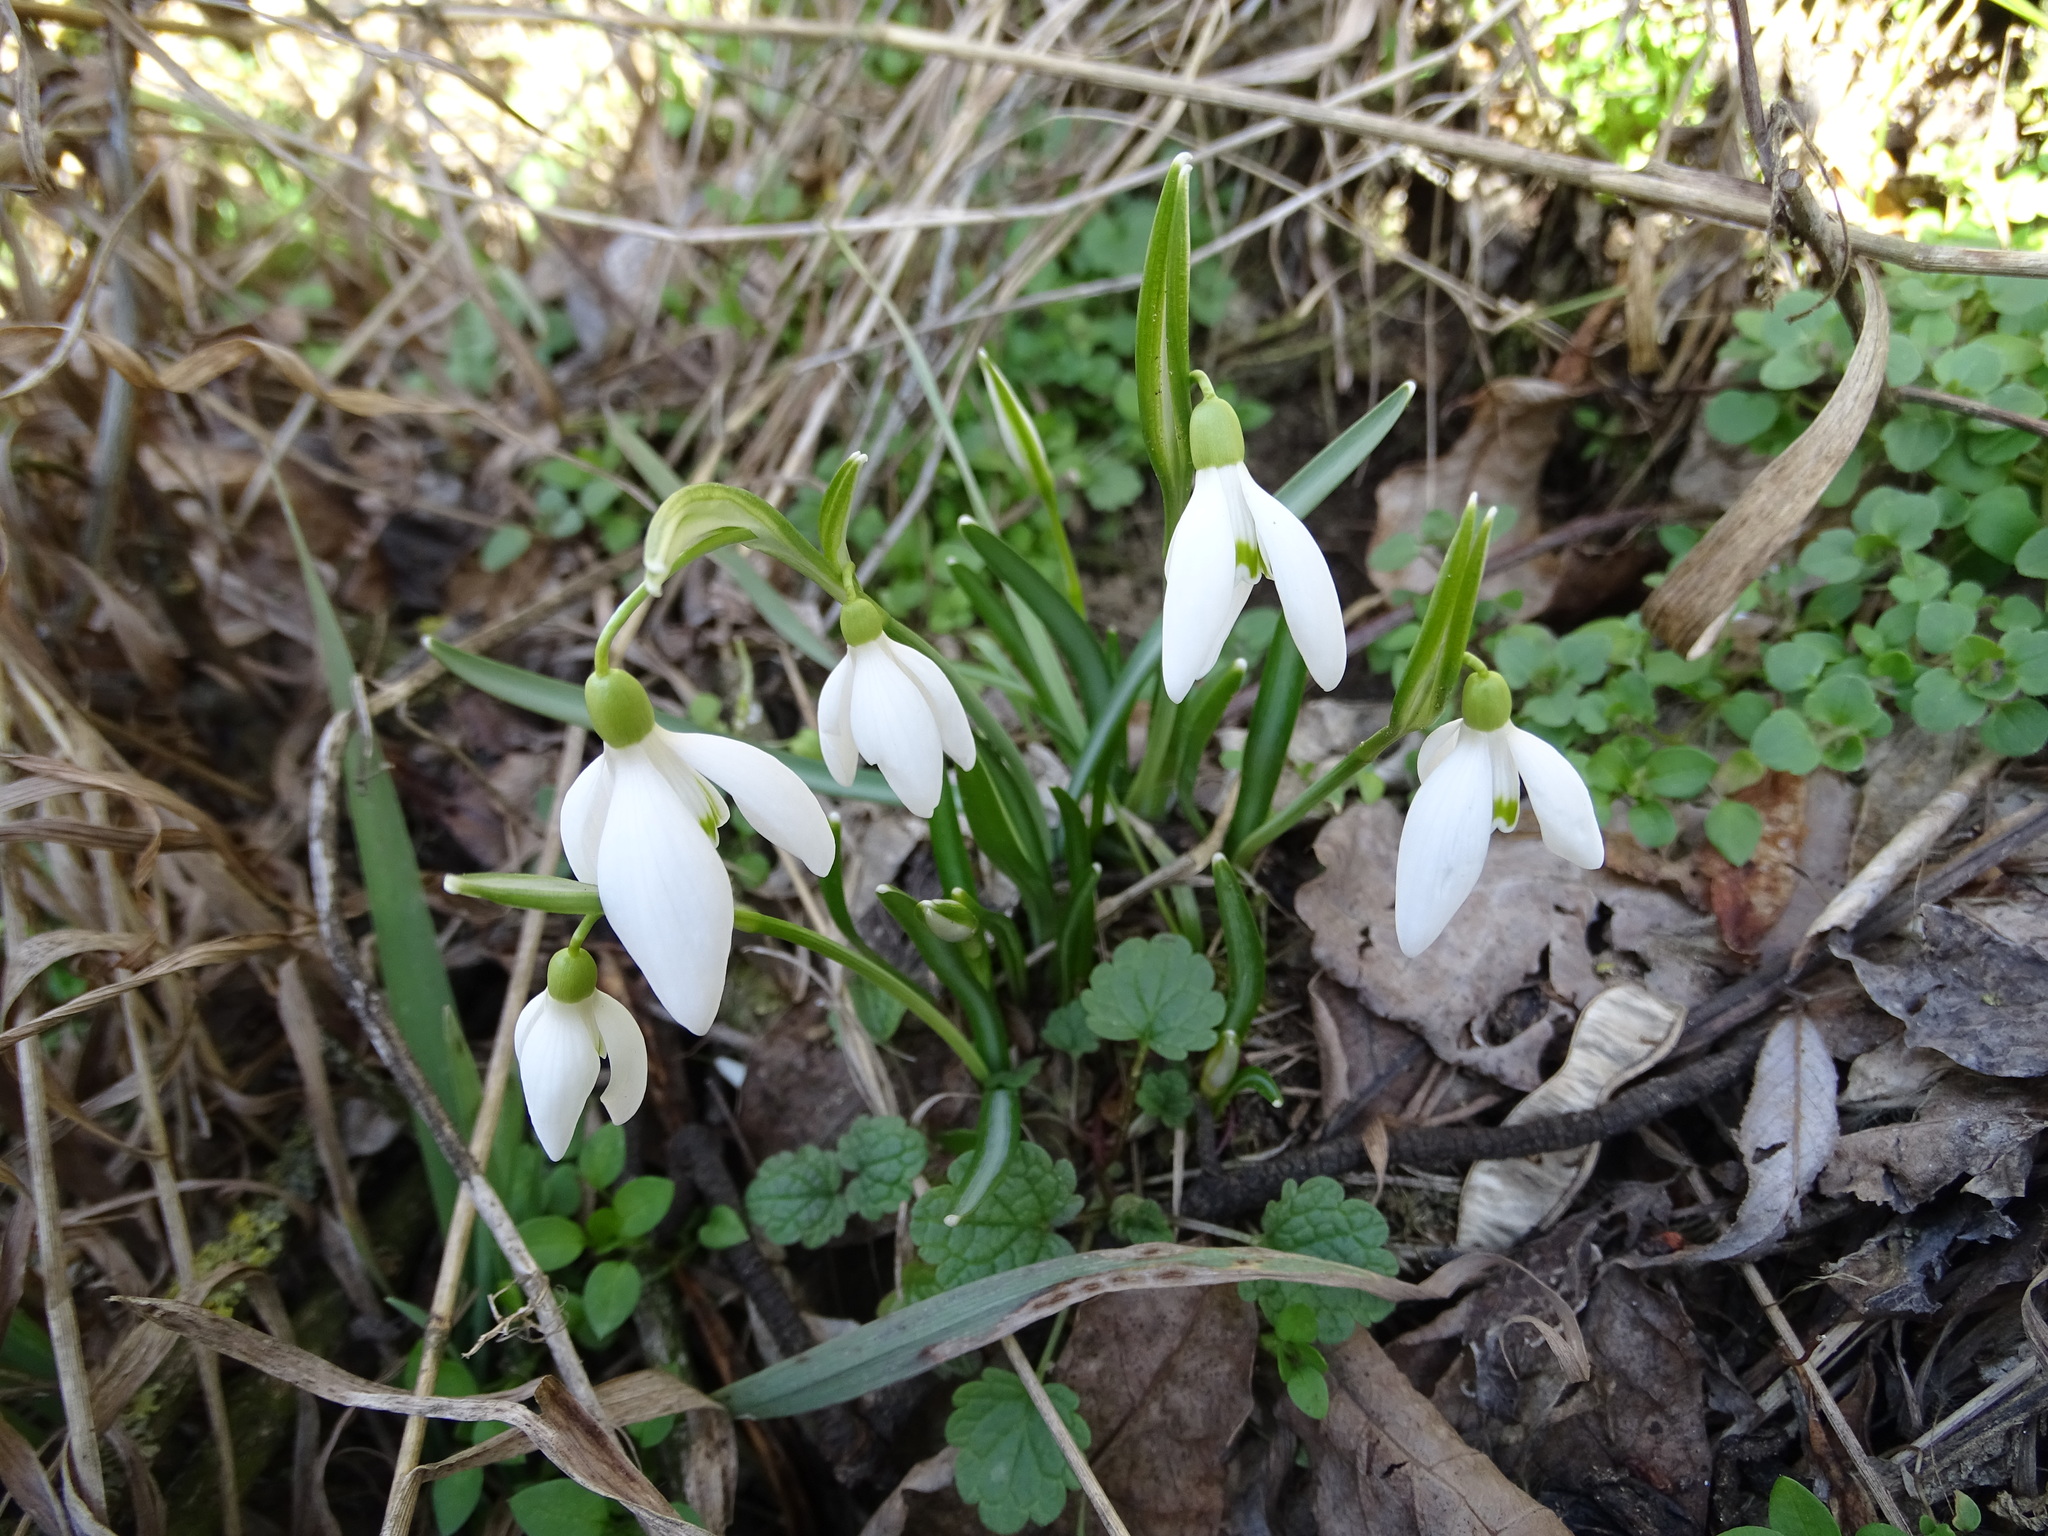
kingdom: Plantae
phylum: Tracheophyta
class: Liliopsida
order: Asparagales
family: Amaryllidaceae
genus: Galanthus
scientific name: Galanthus nivalis
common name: Snowdrop
